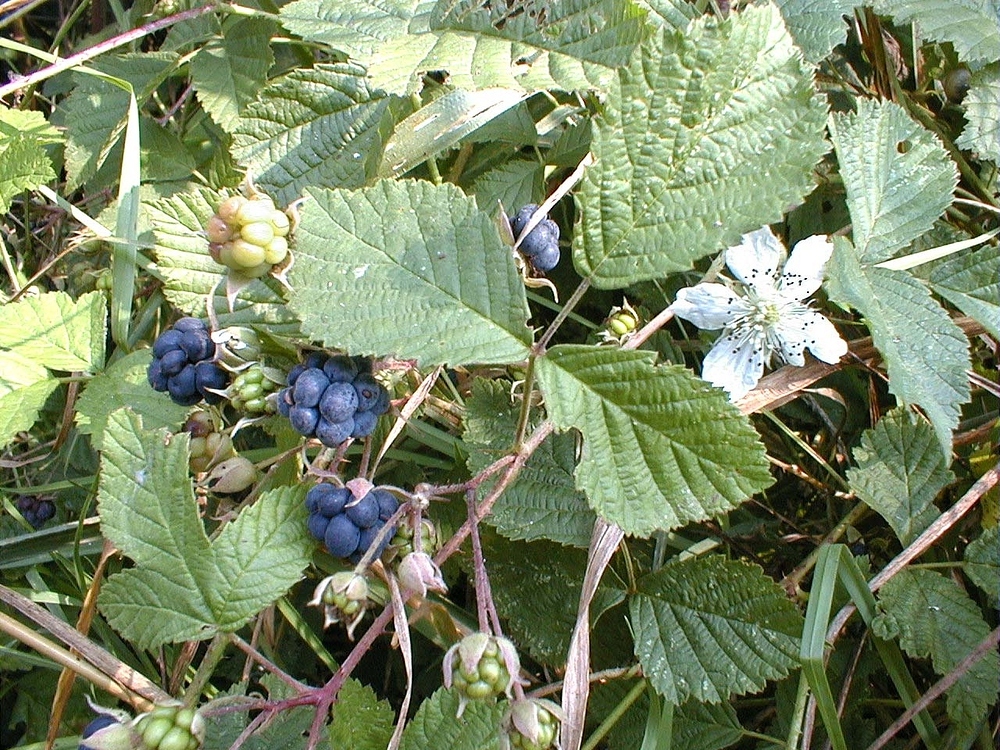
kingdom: Plantae
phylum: Tracheophyta
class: Magnoliopsida
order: Rosales
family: Rosaceae
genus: Rubus
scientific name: Rubus caesius
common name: Dewberry
